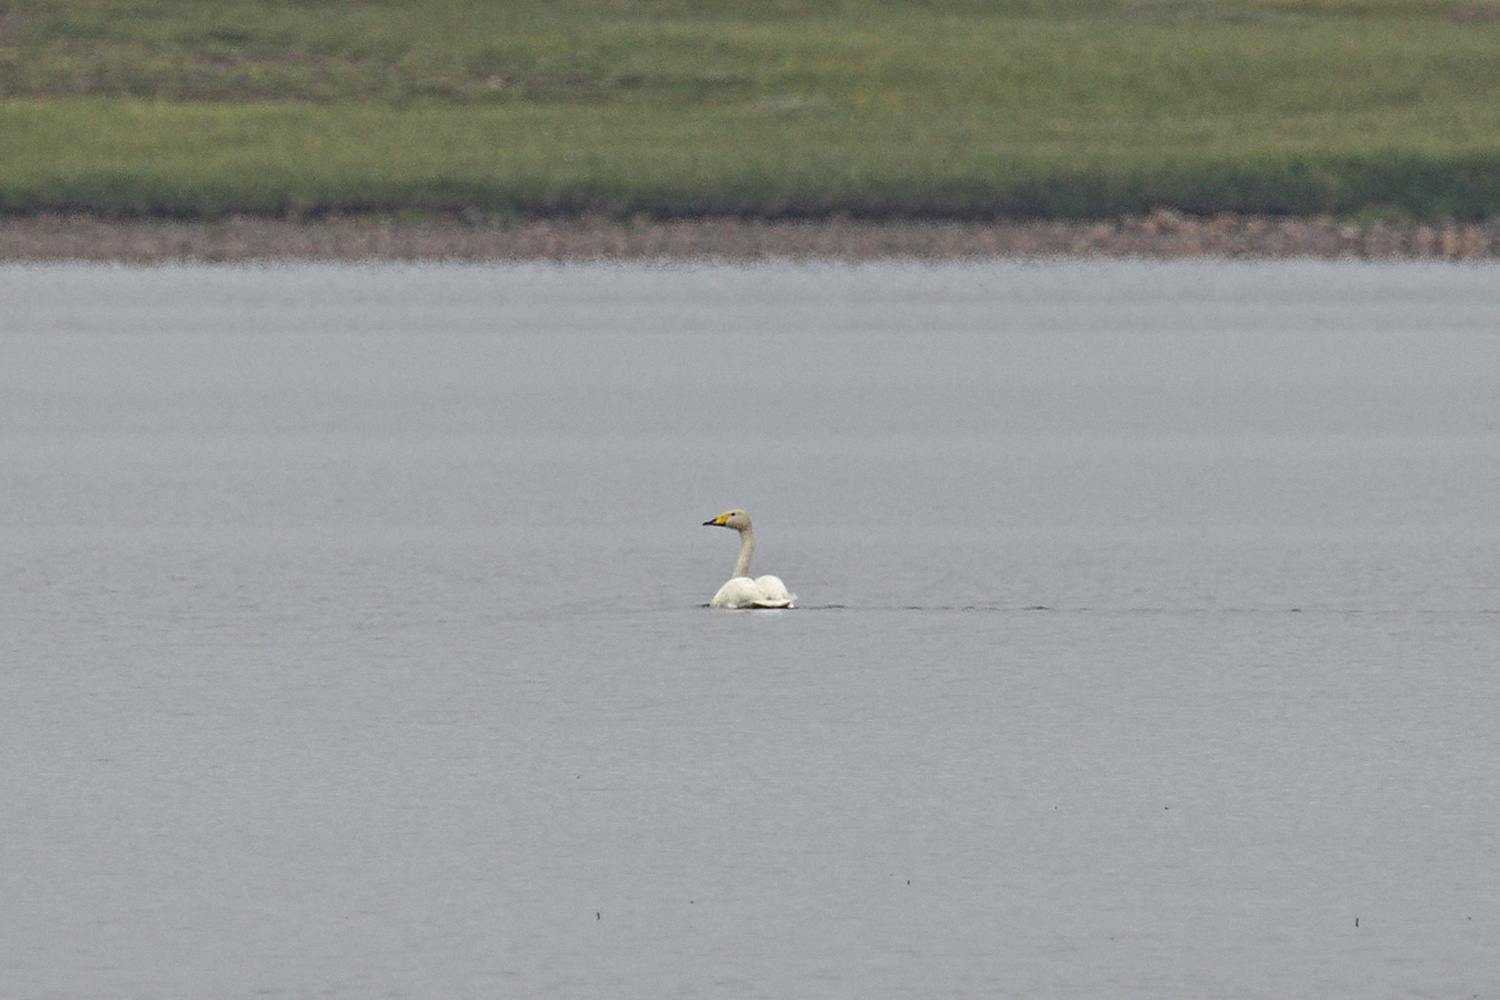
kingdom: Animalia
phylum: Chordata
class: Aves
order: Anseriformes
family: Anatidae
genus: Cygnus
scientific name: Cygnus cygnus
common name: Whooper swan
